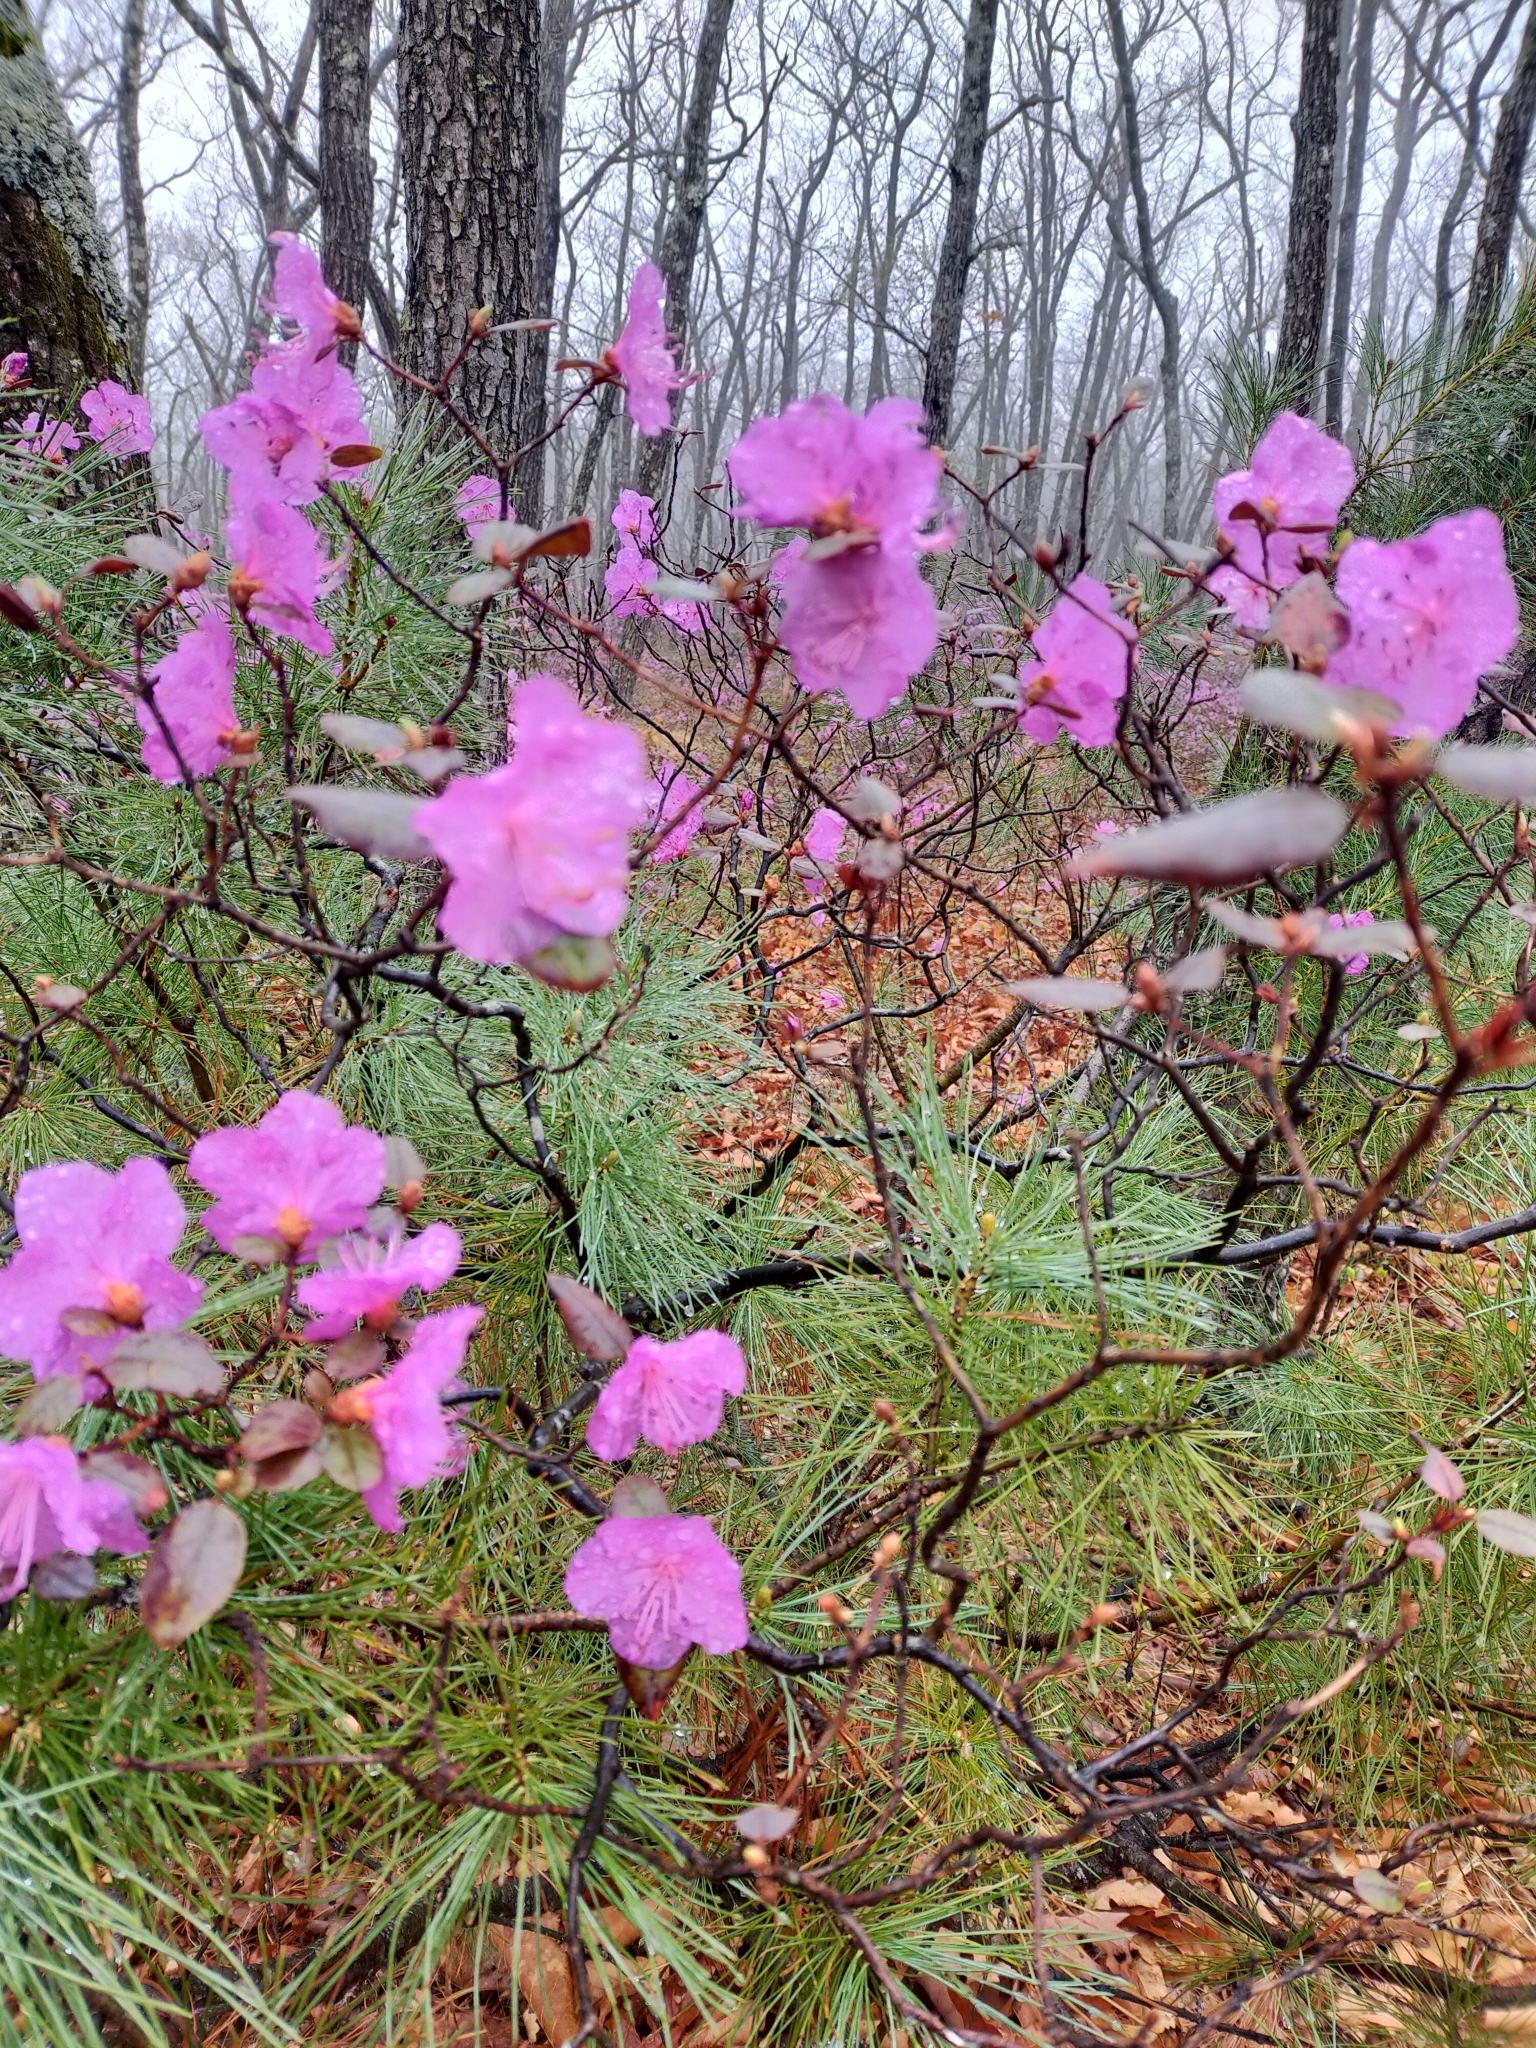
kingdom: Plantae
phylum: Tracheophyta
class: Magnoliopsida
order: Ericales
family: Ericaceae
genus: Rhododendron
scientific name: Rhododendron sichotense
